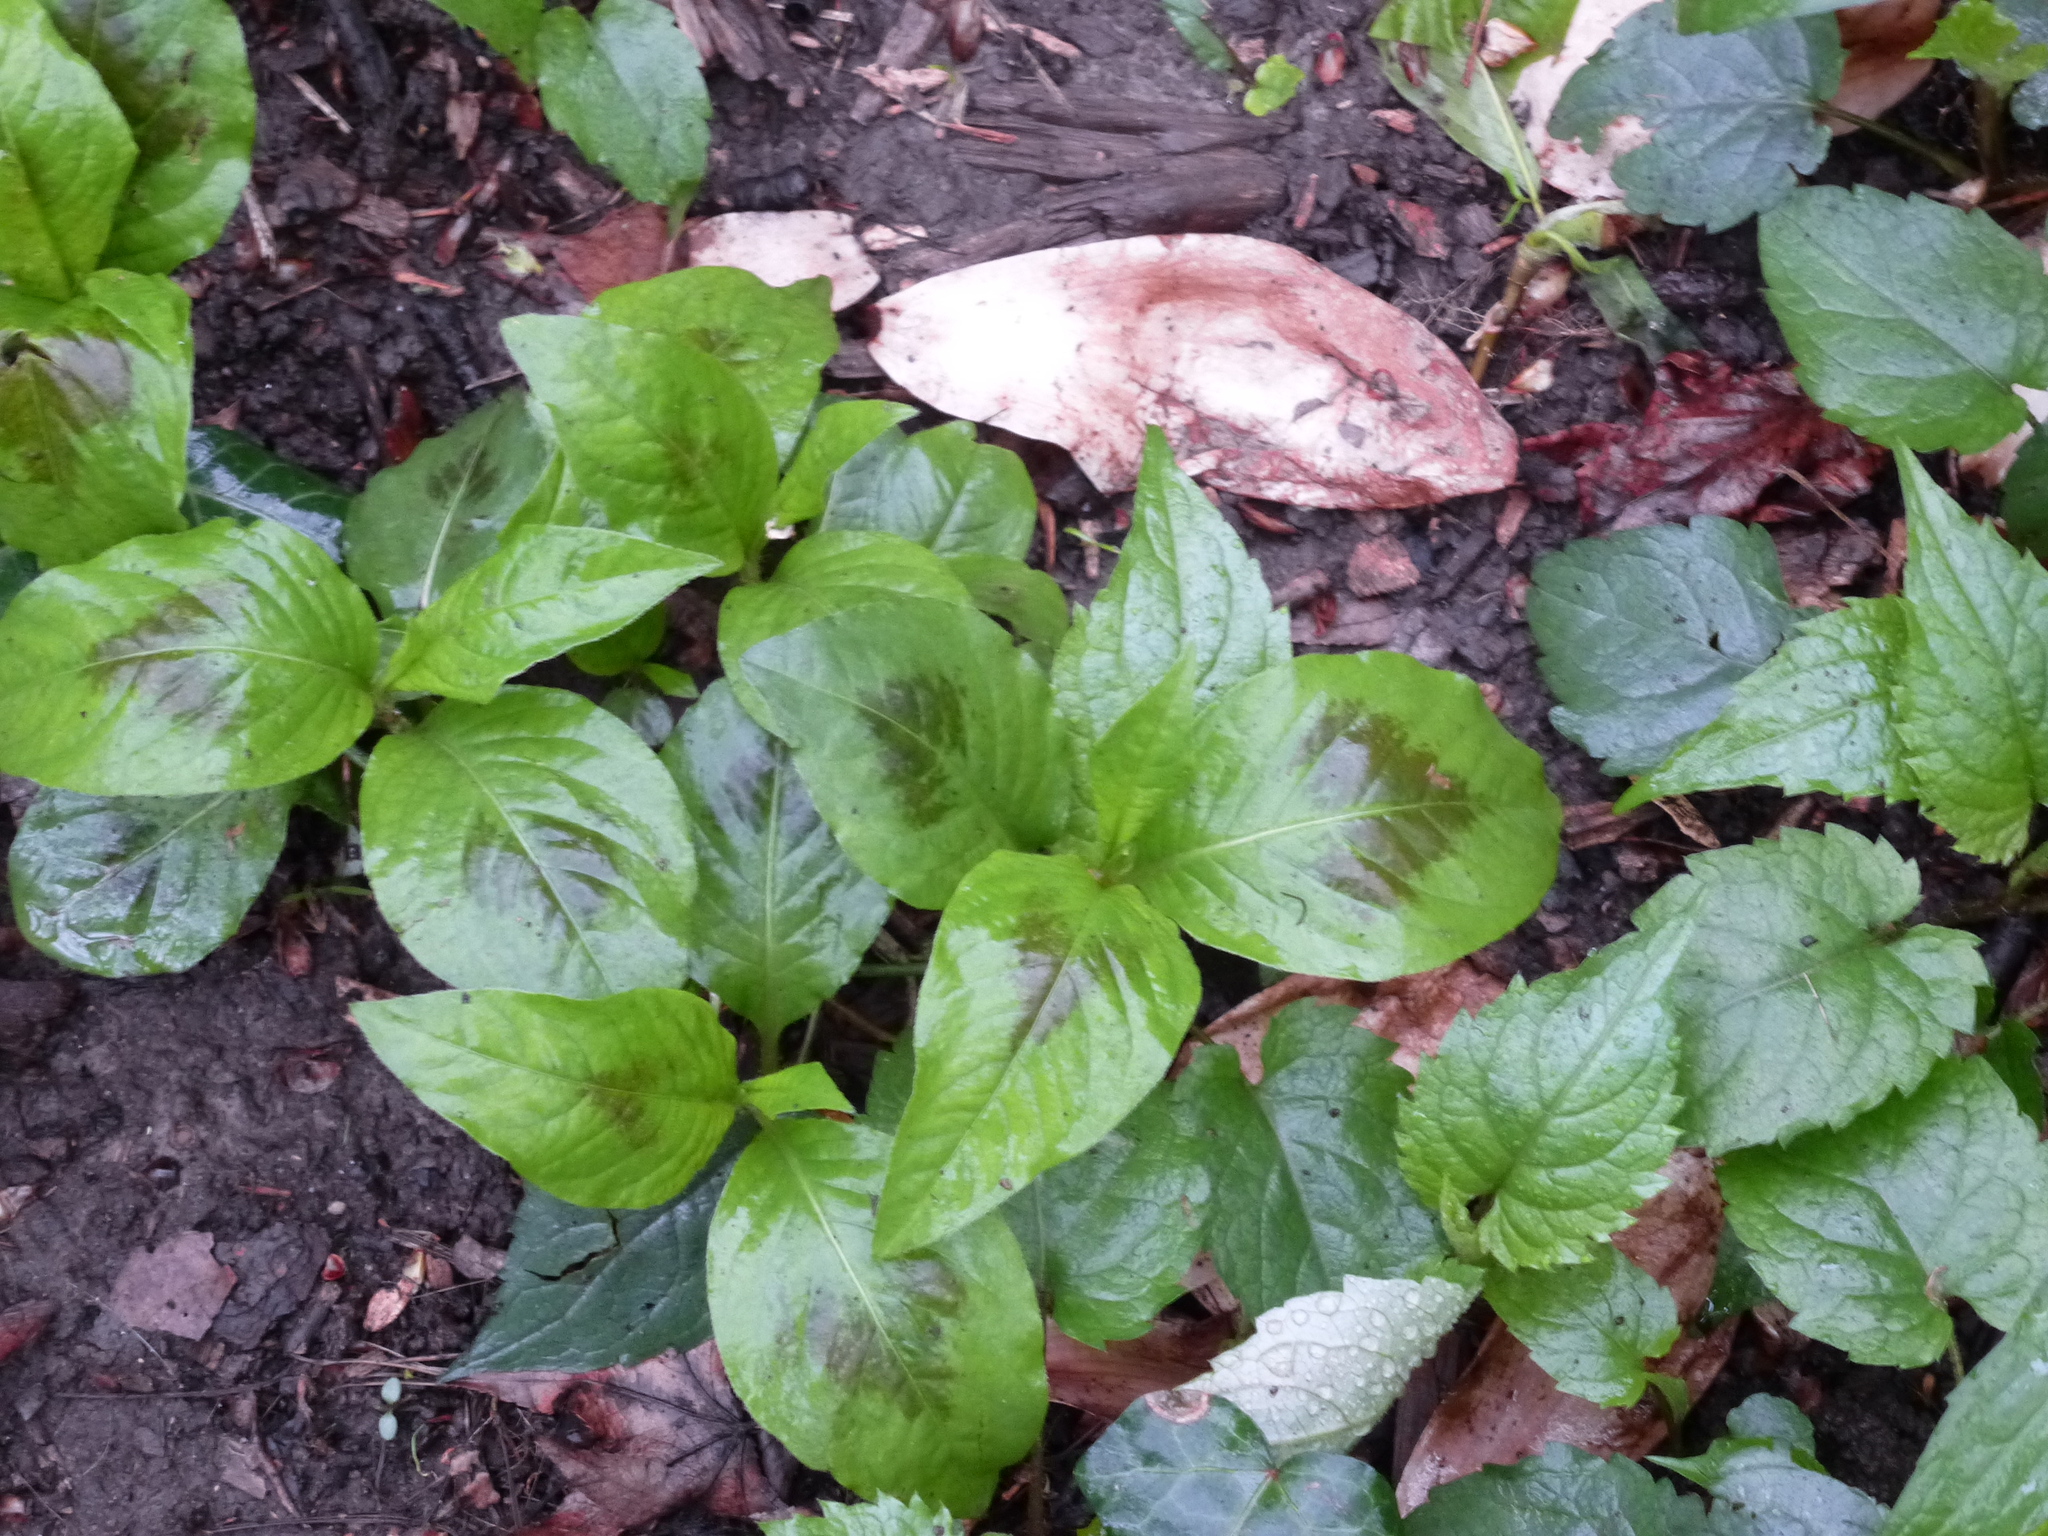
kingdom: Plantae
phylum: Tracheophyta
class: Magnoliopsida
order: Caryophyllales
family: Polygonaceae
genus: Persicaria
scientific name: Persicaria virginiana
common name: Jumpseed
